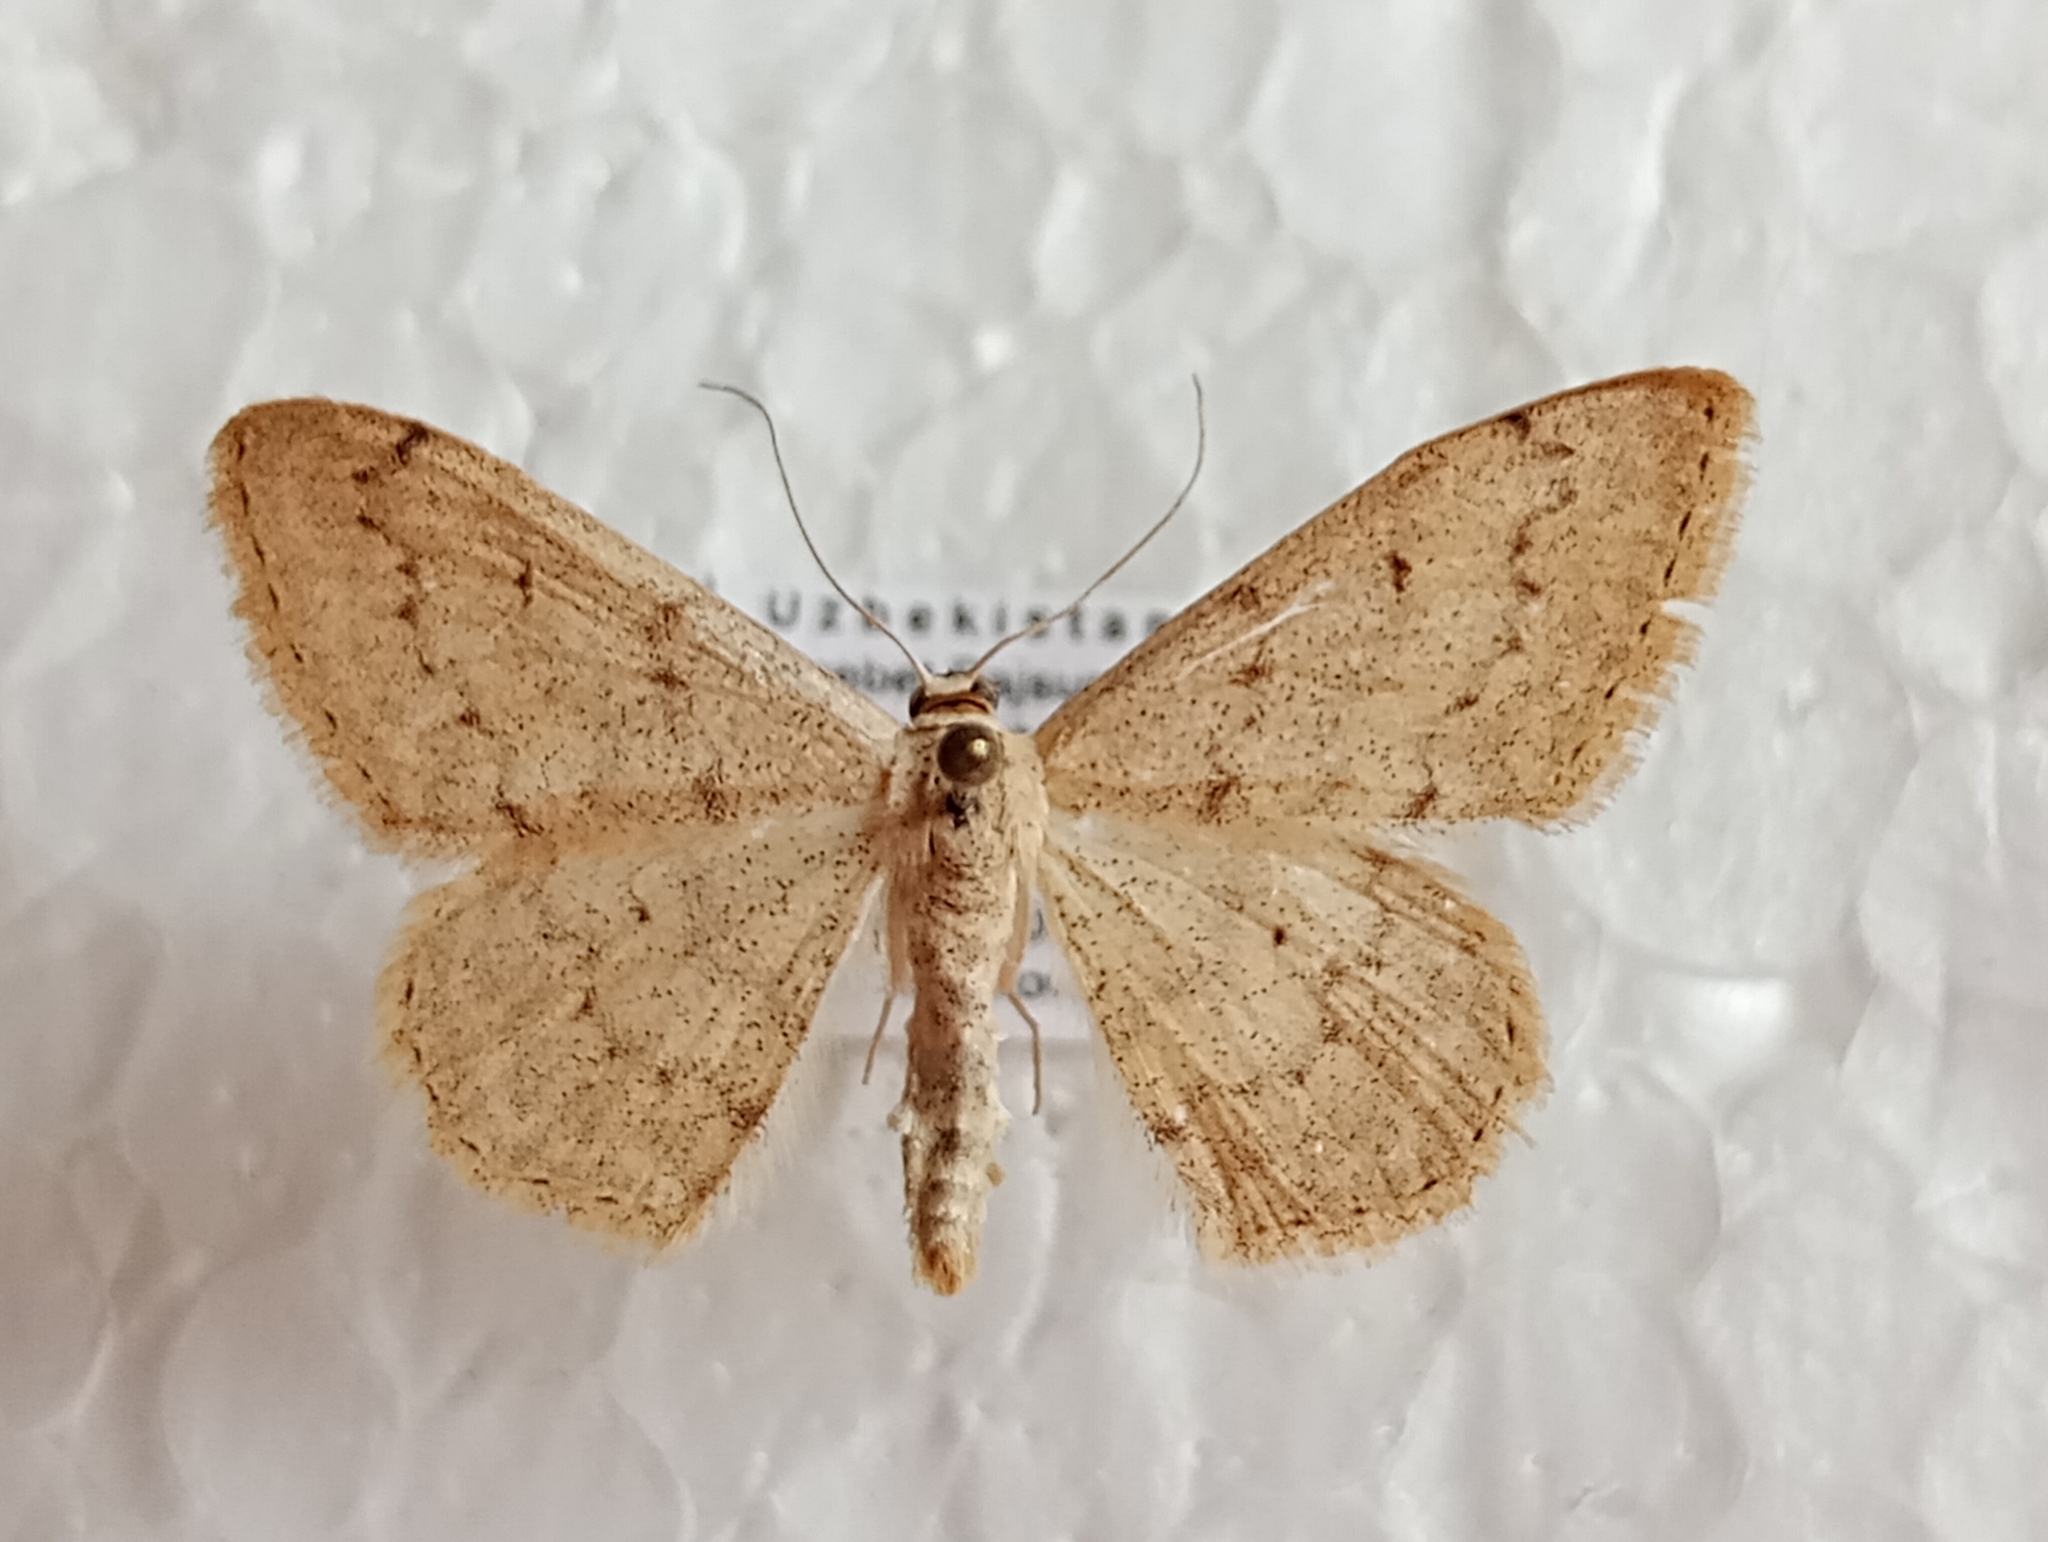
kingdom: Animalia
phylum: Arthropoda
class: Insecta
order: Lepidoptera
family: Geometridae
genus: Scopula
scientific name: Scopula cumulata
